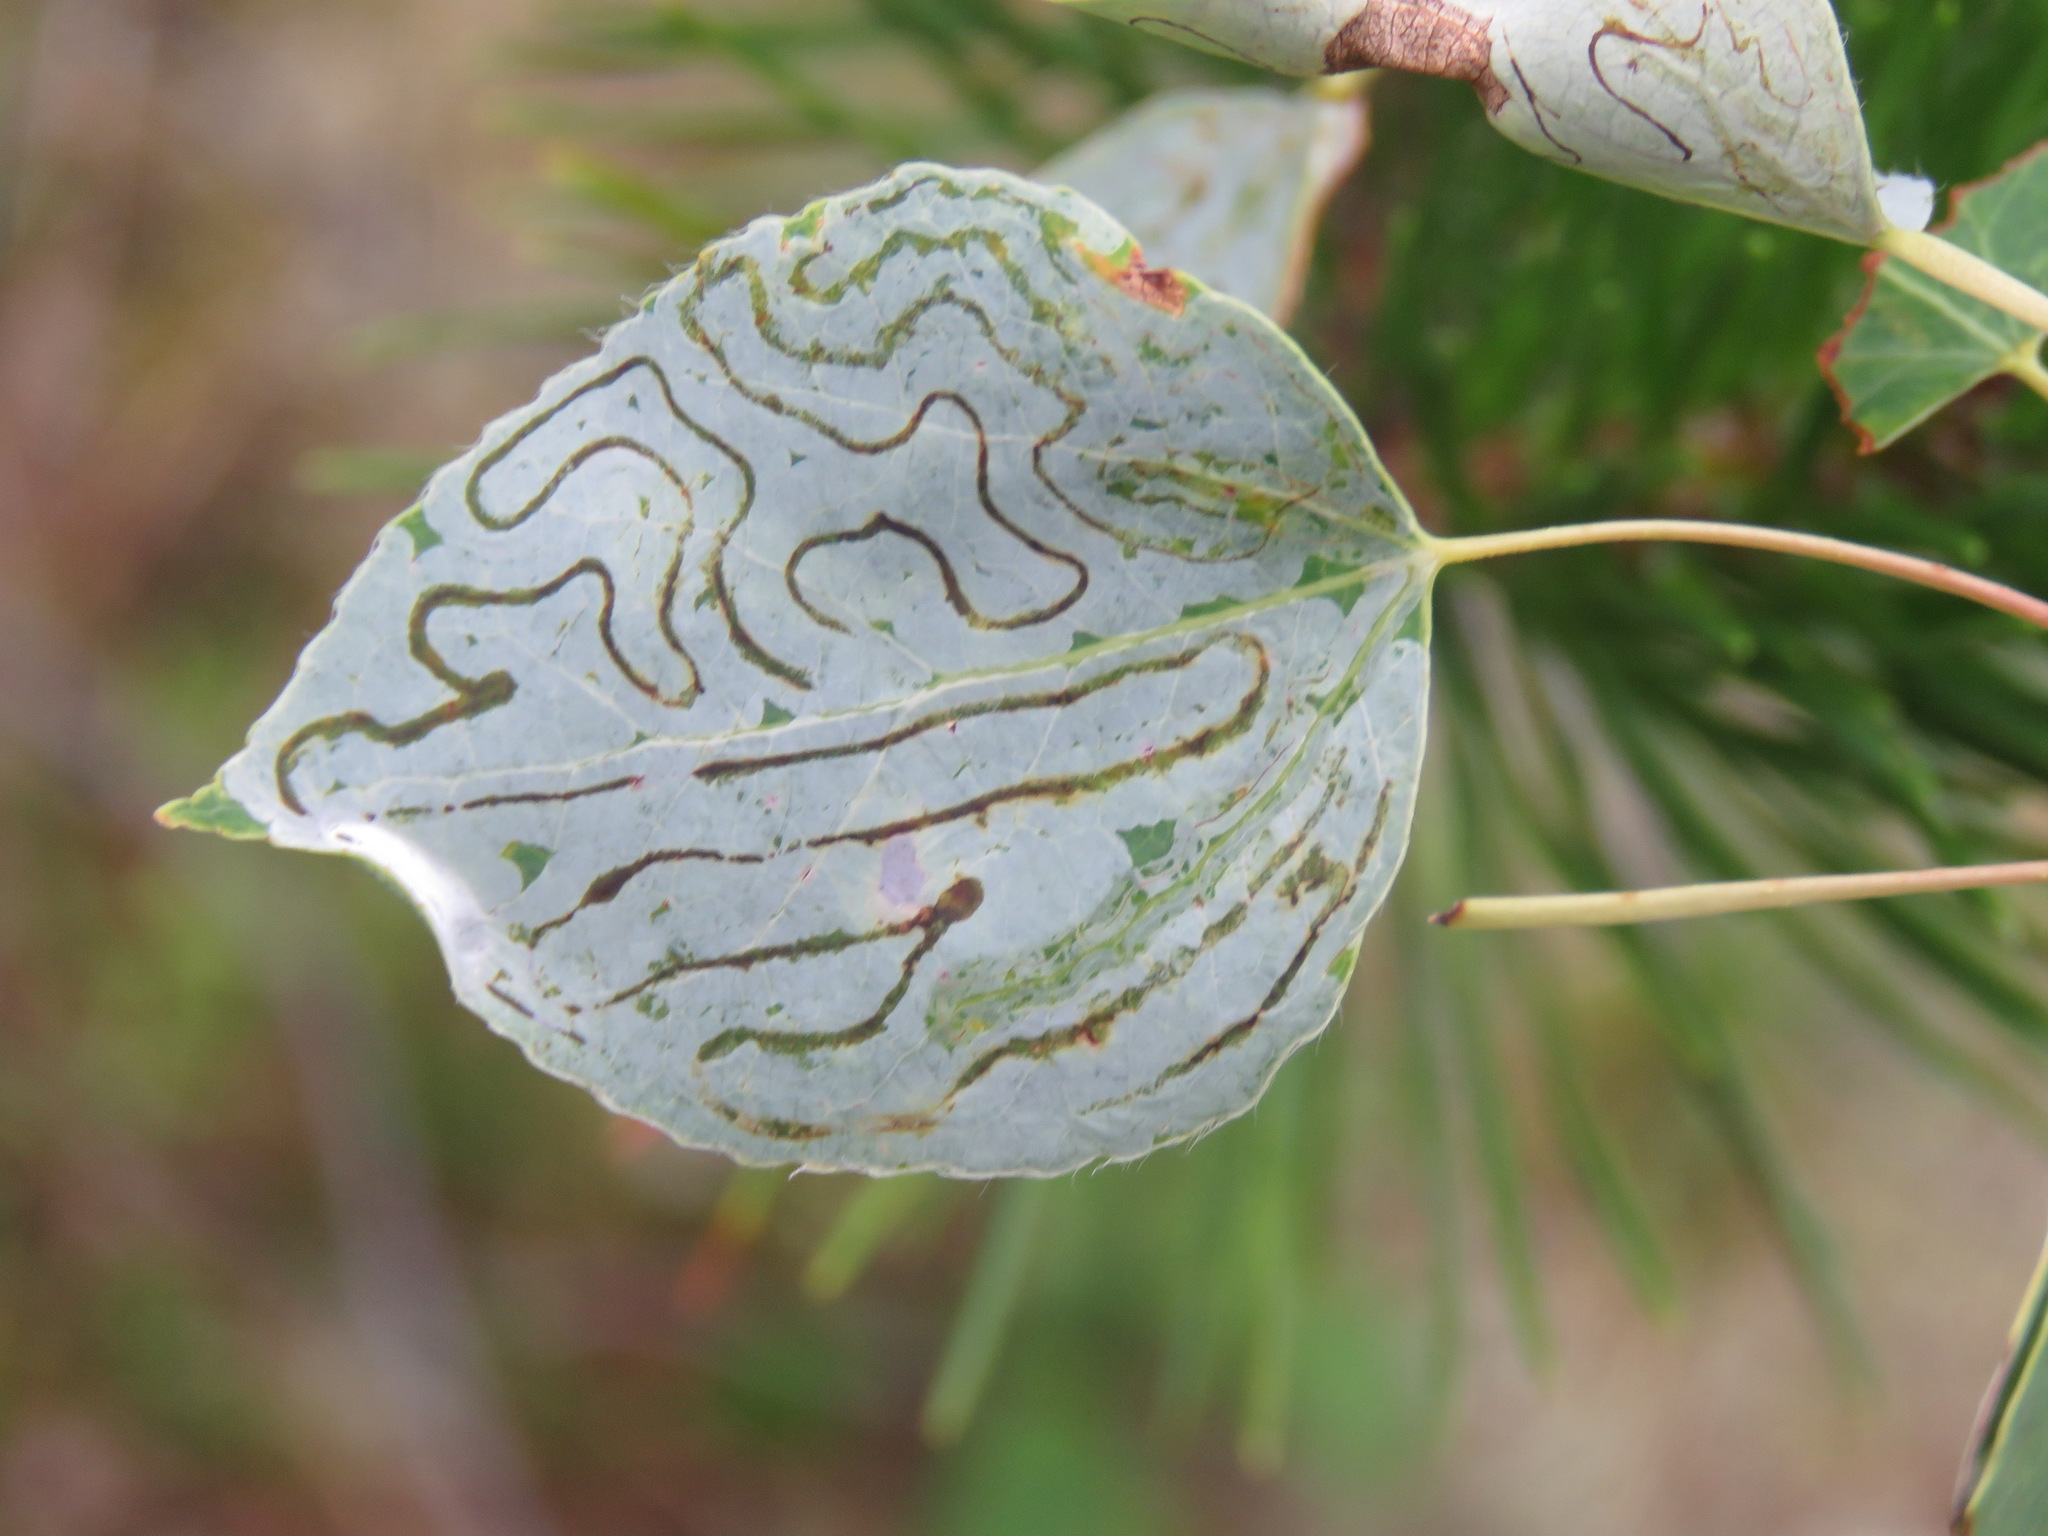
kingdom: Animalia
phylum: Arthropoda
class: Insecta
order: Lepidoptera
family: Gracillariidae
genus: Phyllocnistis
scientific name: Phyllocnistis populiella
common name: Aspen serpentine leafminer moth
